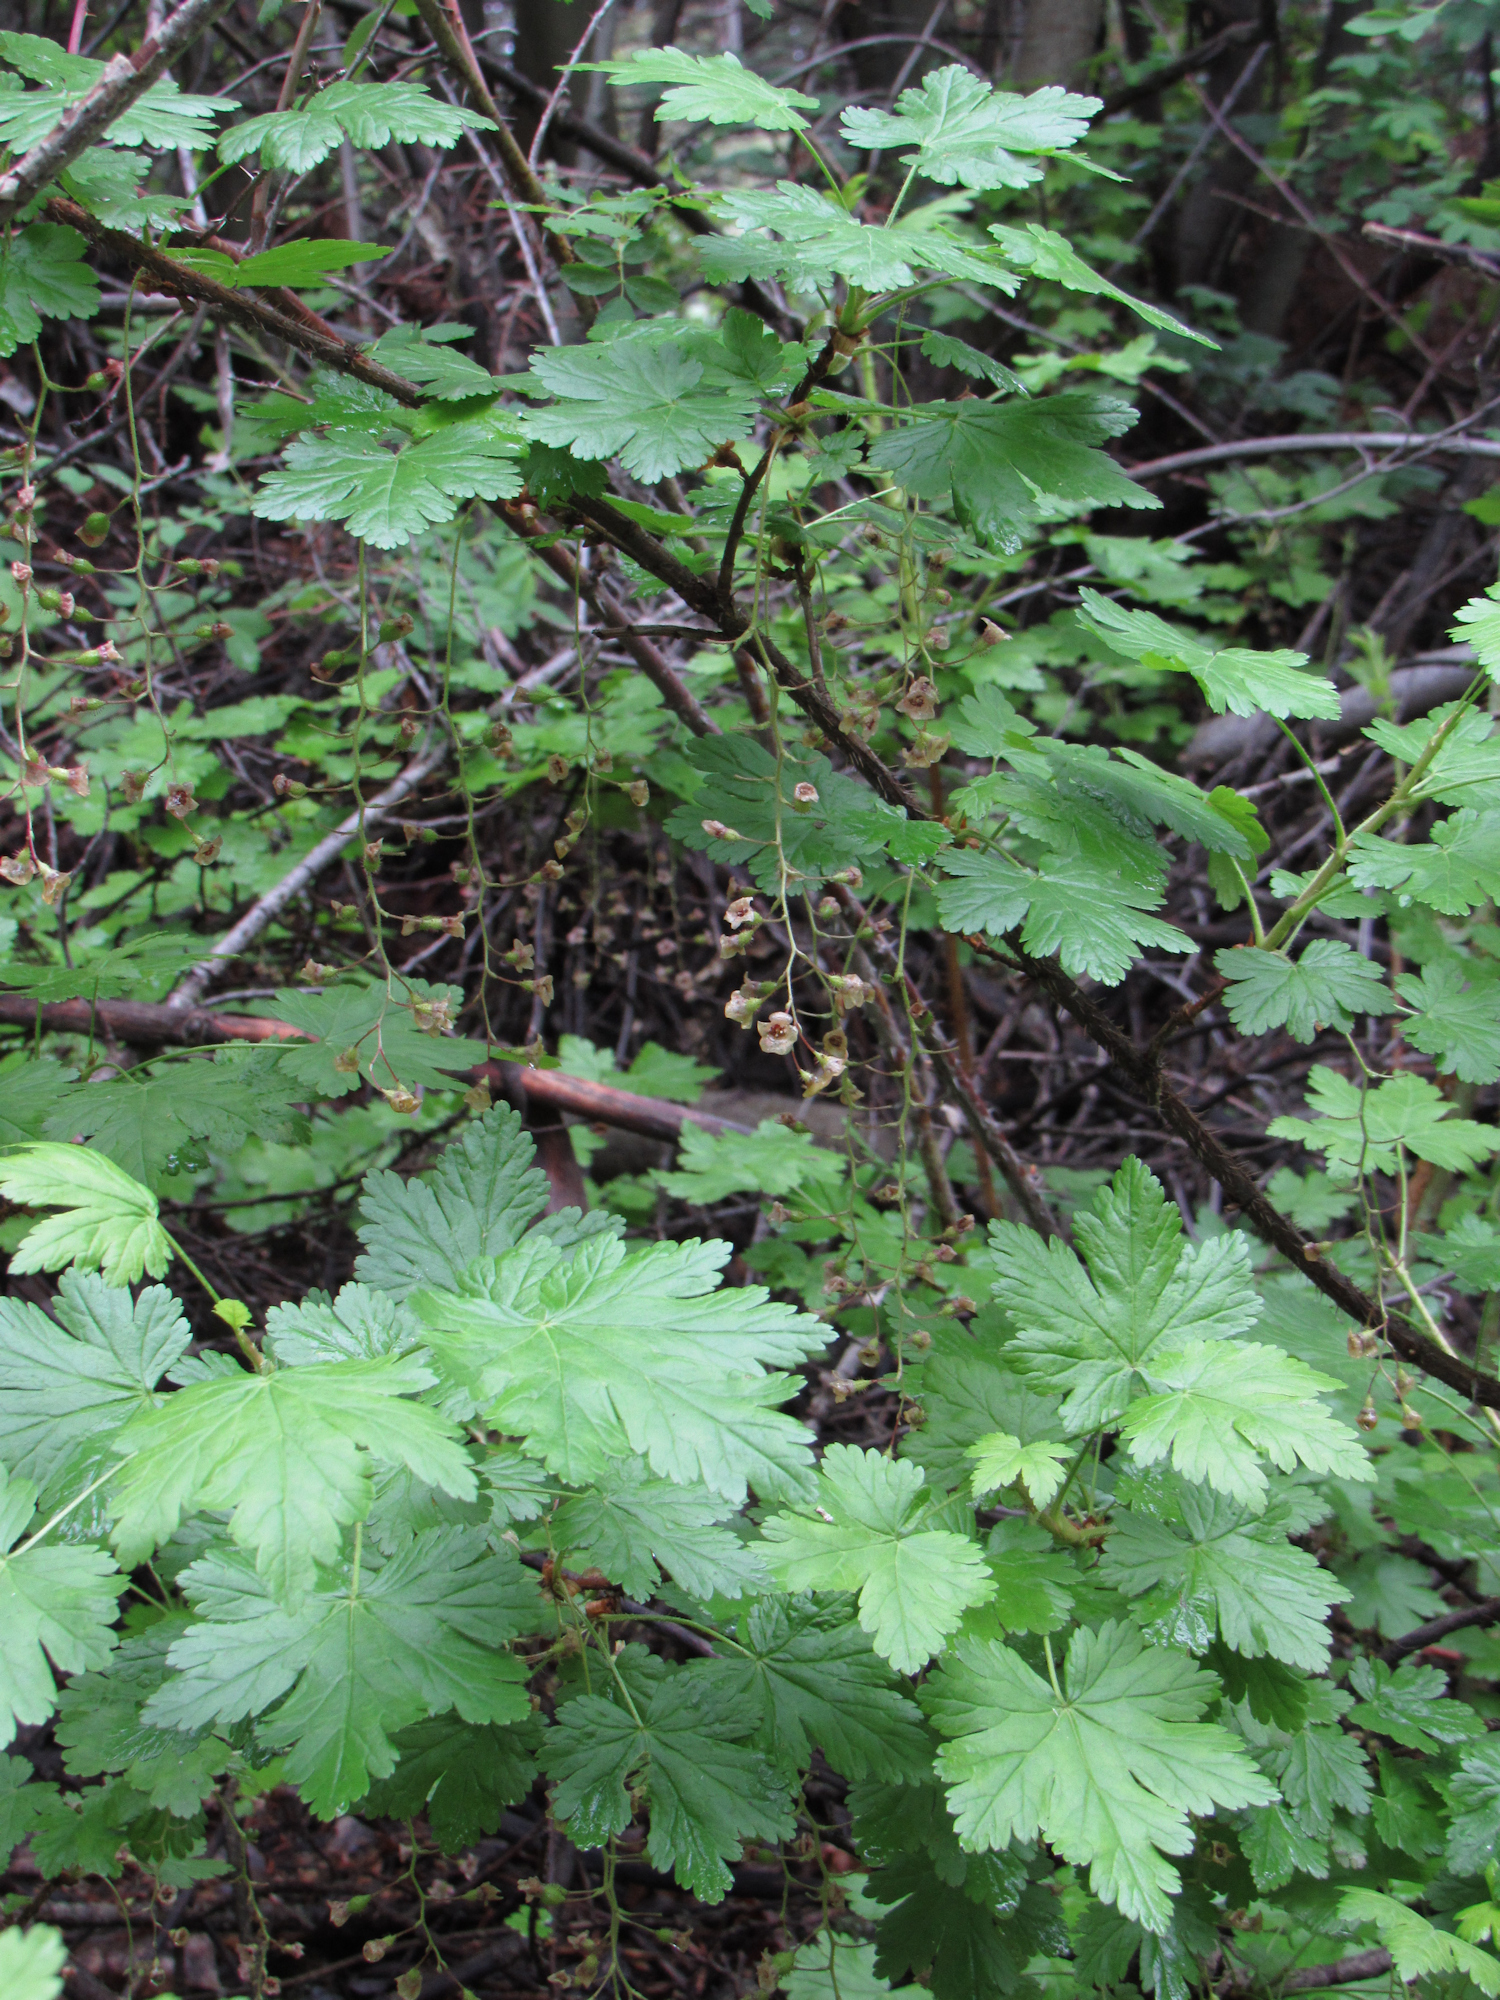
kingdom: Plantae
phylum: Tracheophyta
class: Magnoliopsida
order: Saxifragales
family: Grossulariaceae
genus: Ribes
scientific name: Ribes lacustre
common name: Black gooseberry
